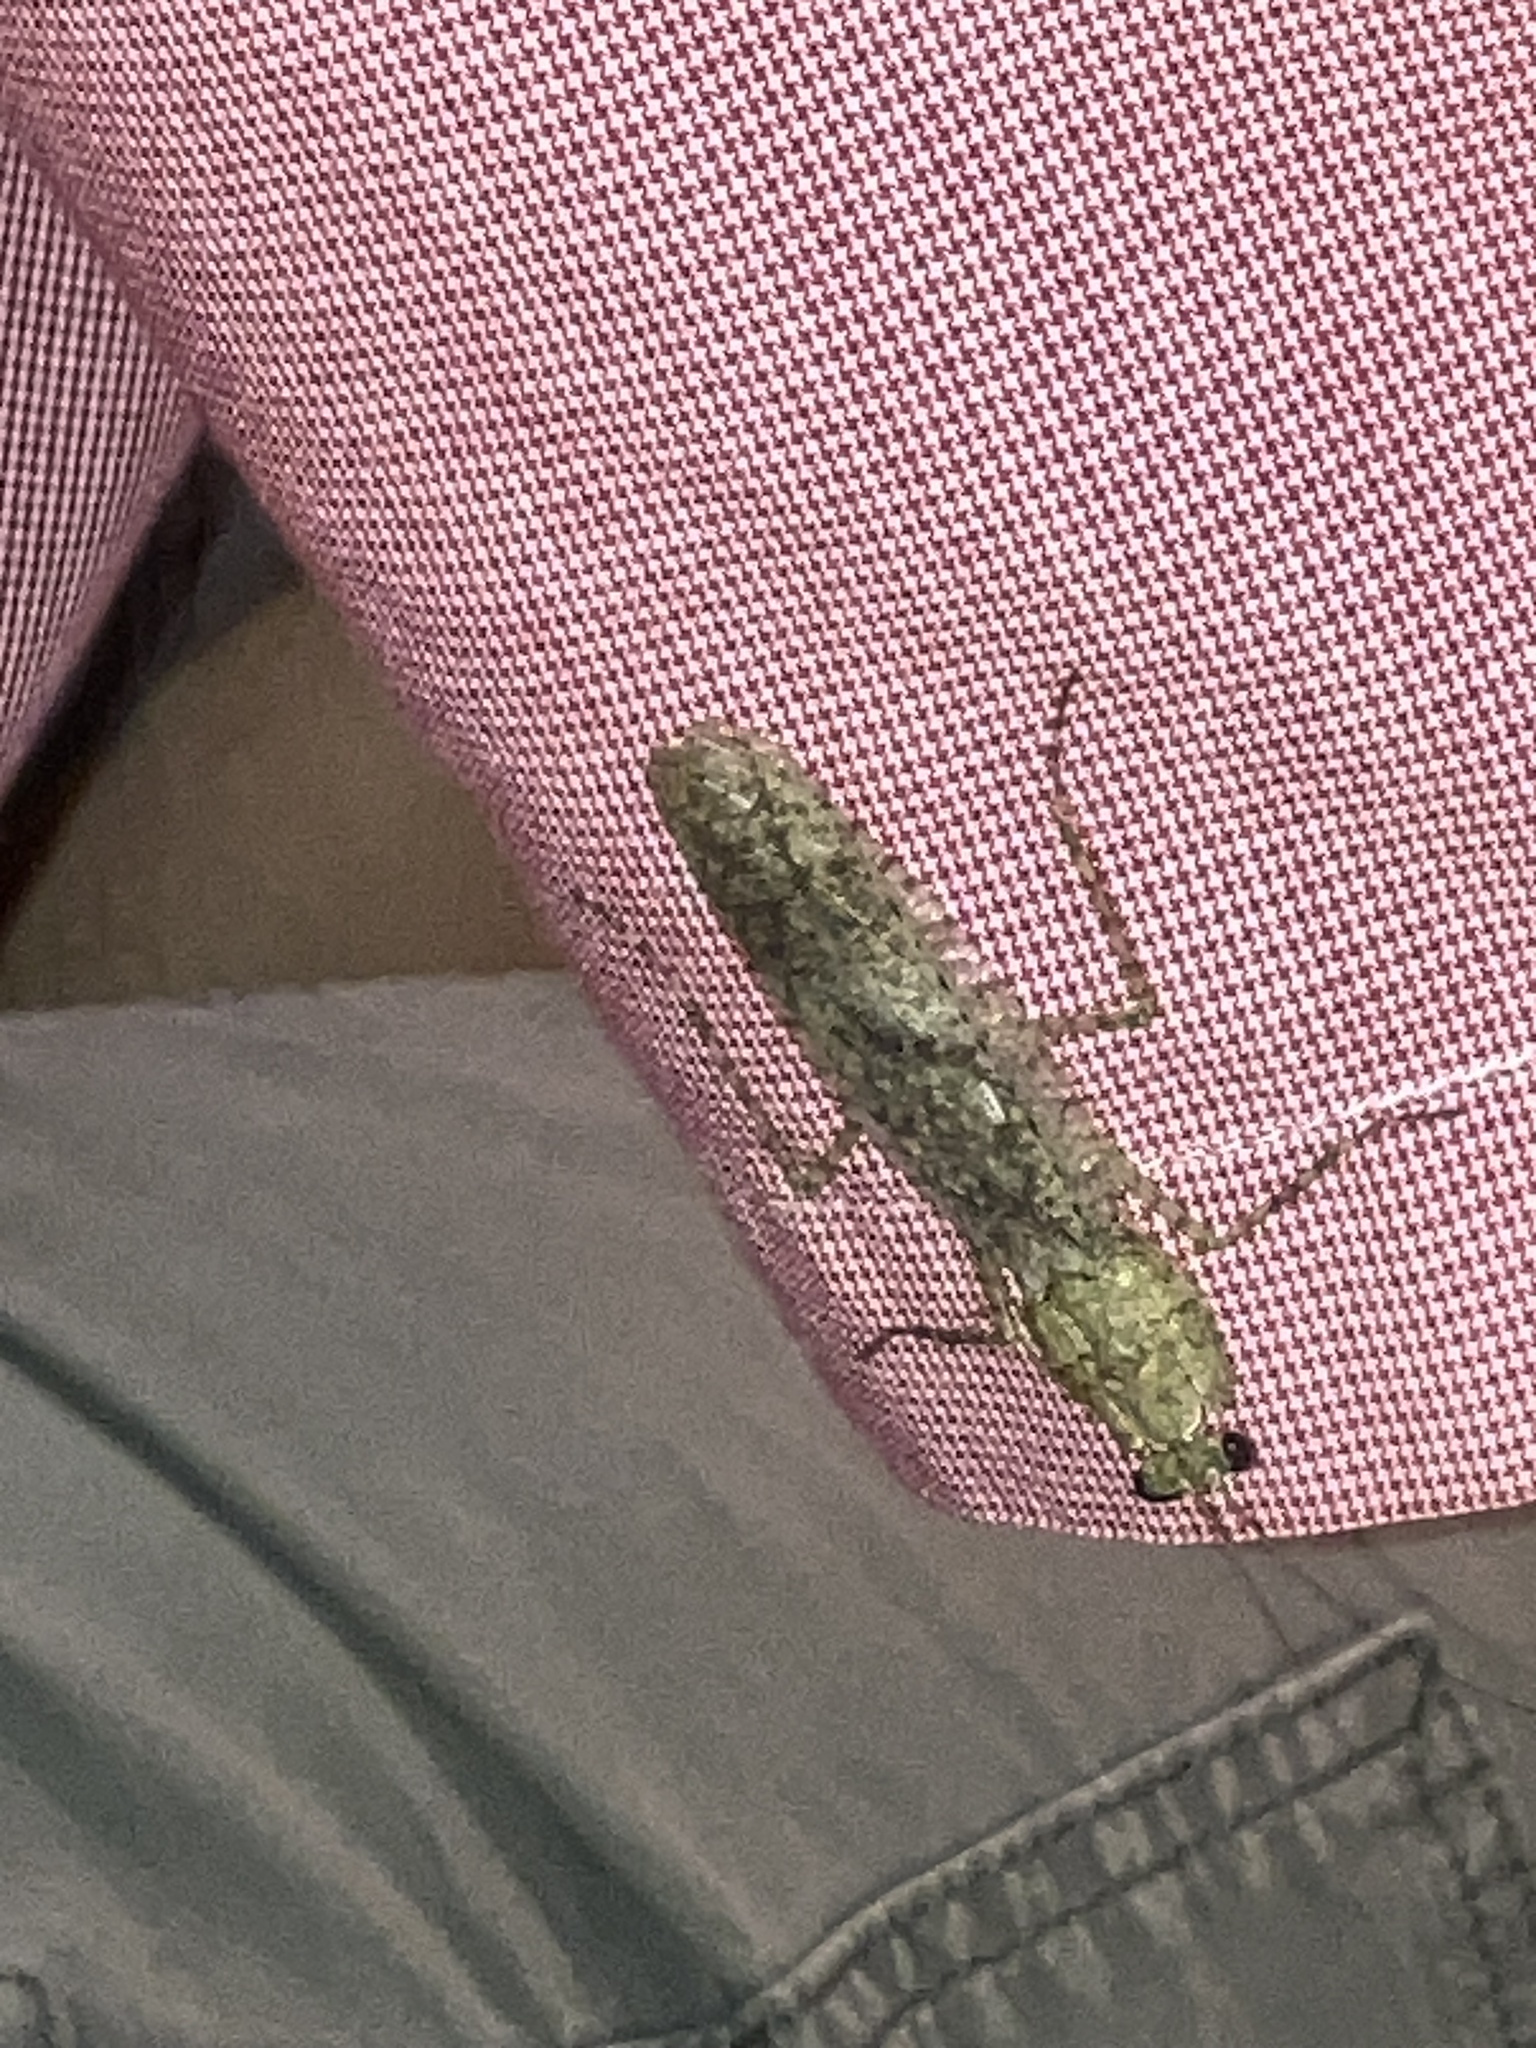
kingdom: Animalia
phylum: Arthropoda
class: Insecta
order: Mantodea
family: Epaphroditidae
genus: Gonatista
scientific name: Gonatista grisea
